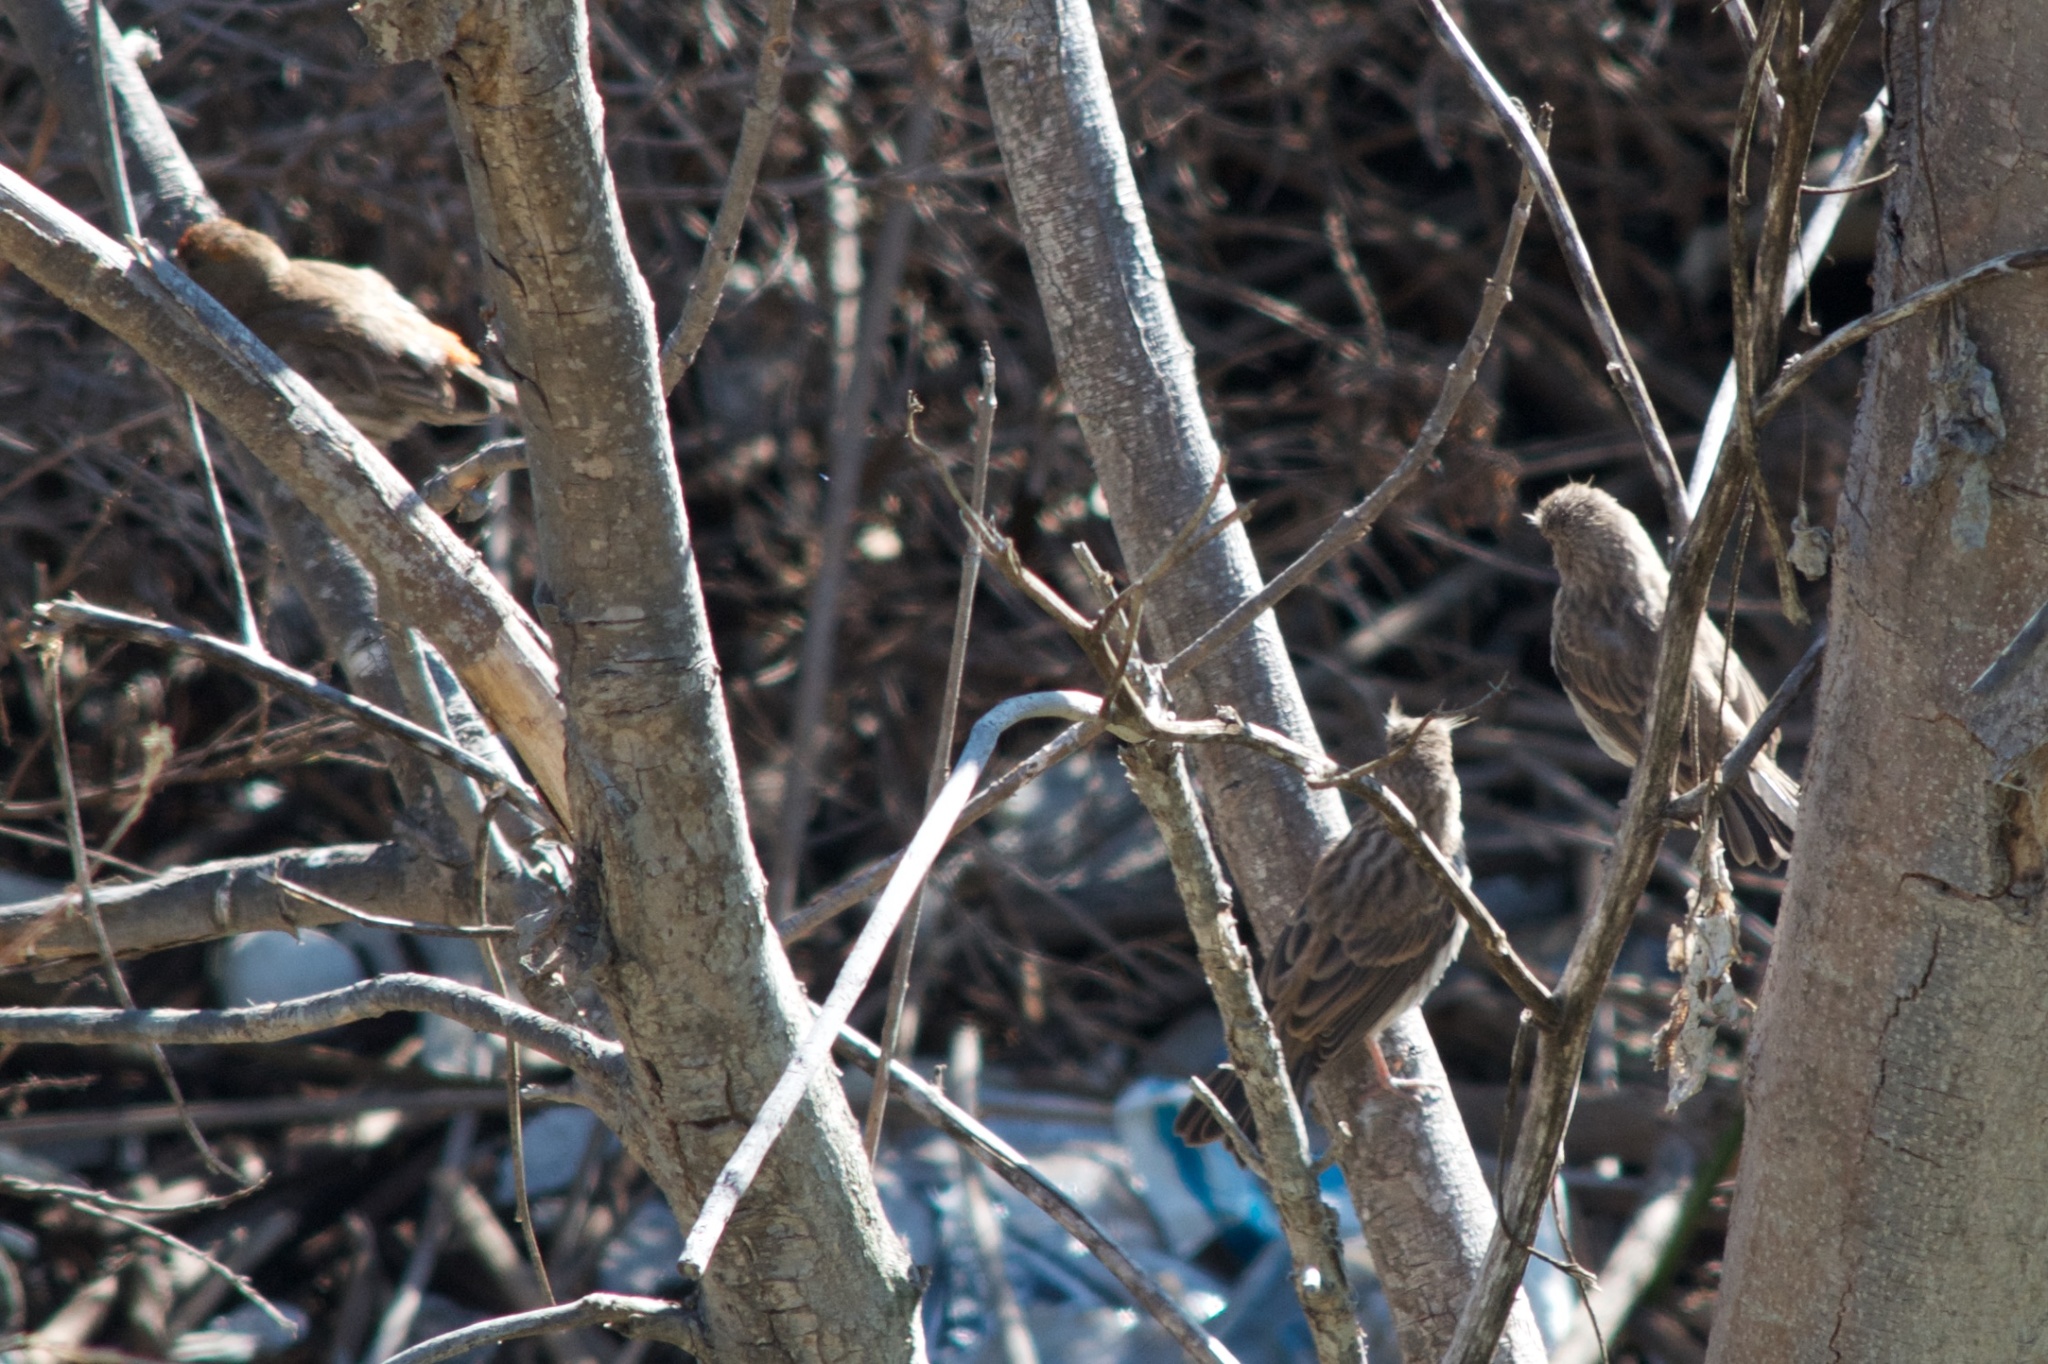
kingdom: Animalia
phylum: Chordata
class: Aves
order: Passeriformes
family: Fringillidae
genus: Haemorhous
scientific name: Haemorhous mexicanus
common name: House finch
